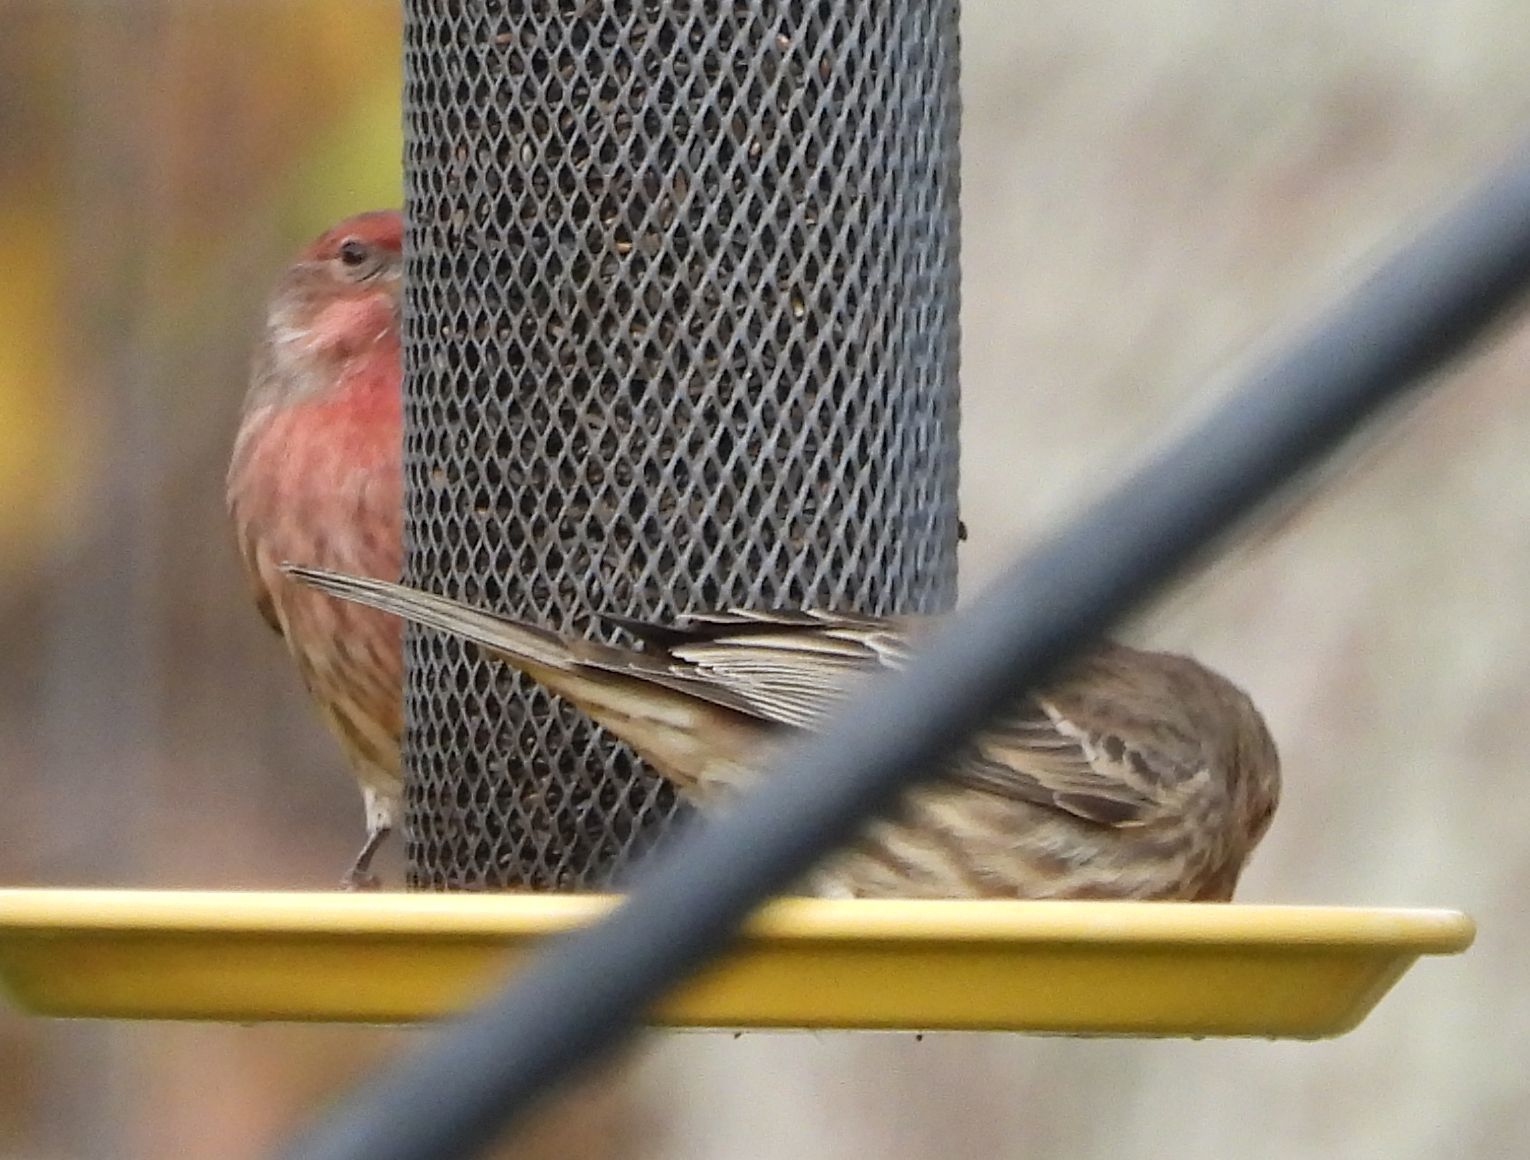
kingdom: Animalia
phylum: Chordata
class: Aves
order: Passeriformes
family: Fringillidae
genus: Haemorhous
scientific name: Haemorhous mexicanus
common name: House finch
